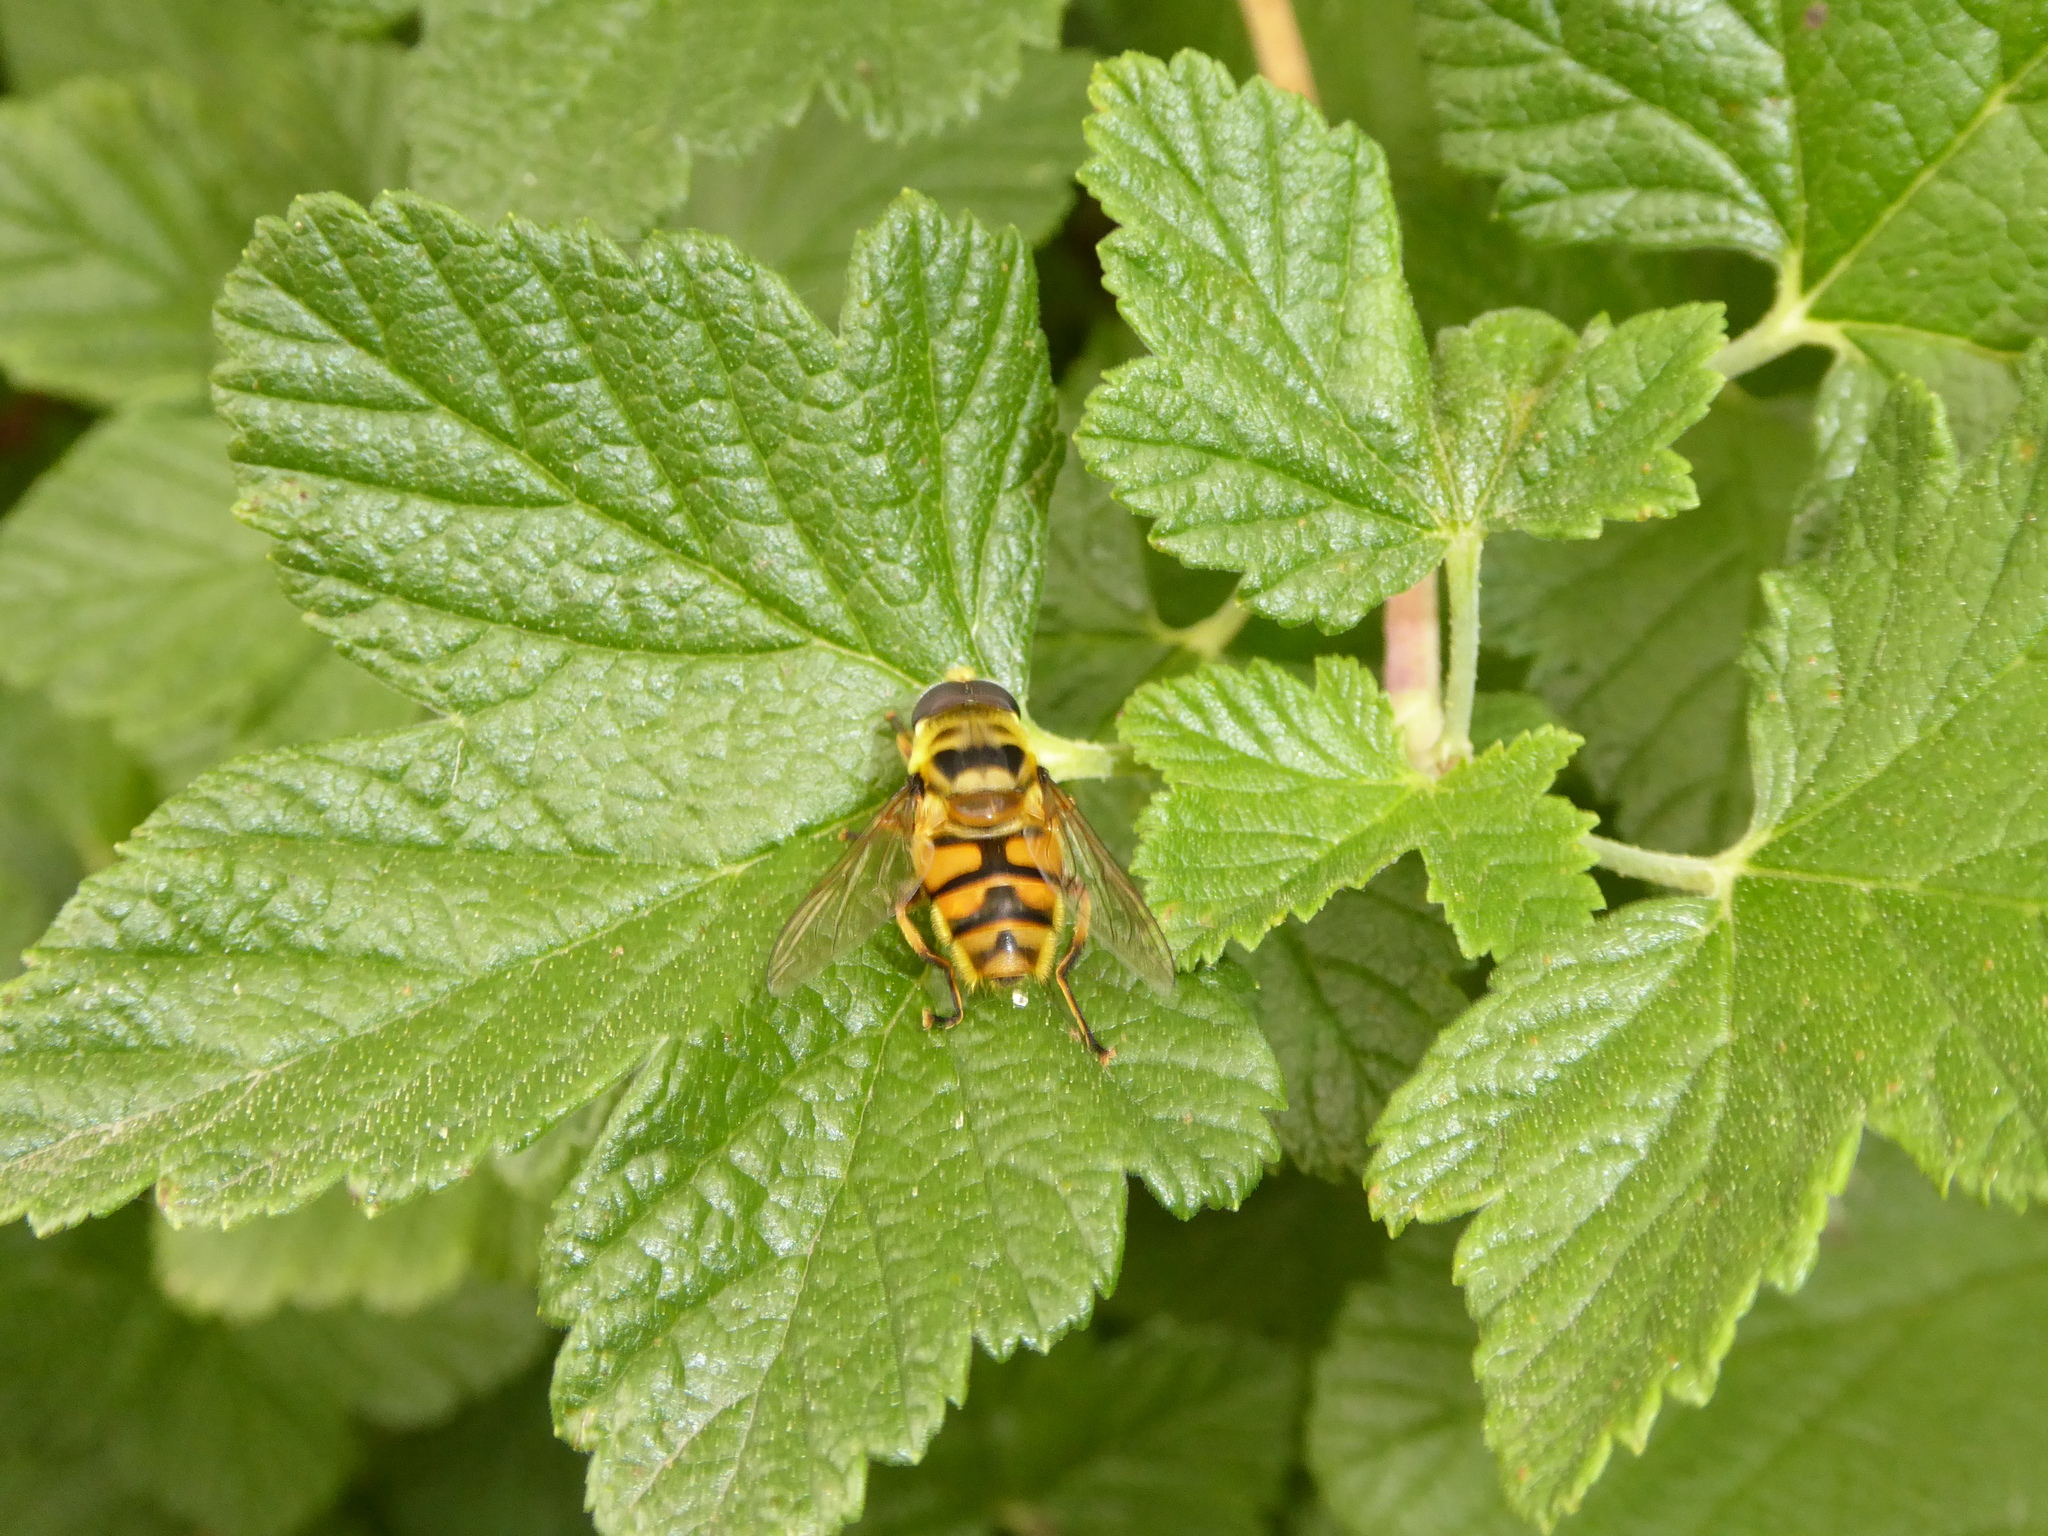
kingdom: Animalia
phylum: Arthropoda
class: Insecta
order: Diptera
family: Syrphidae
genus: Myathropa
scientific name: Myathropa florea
